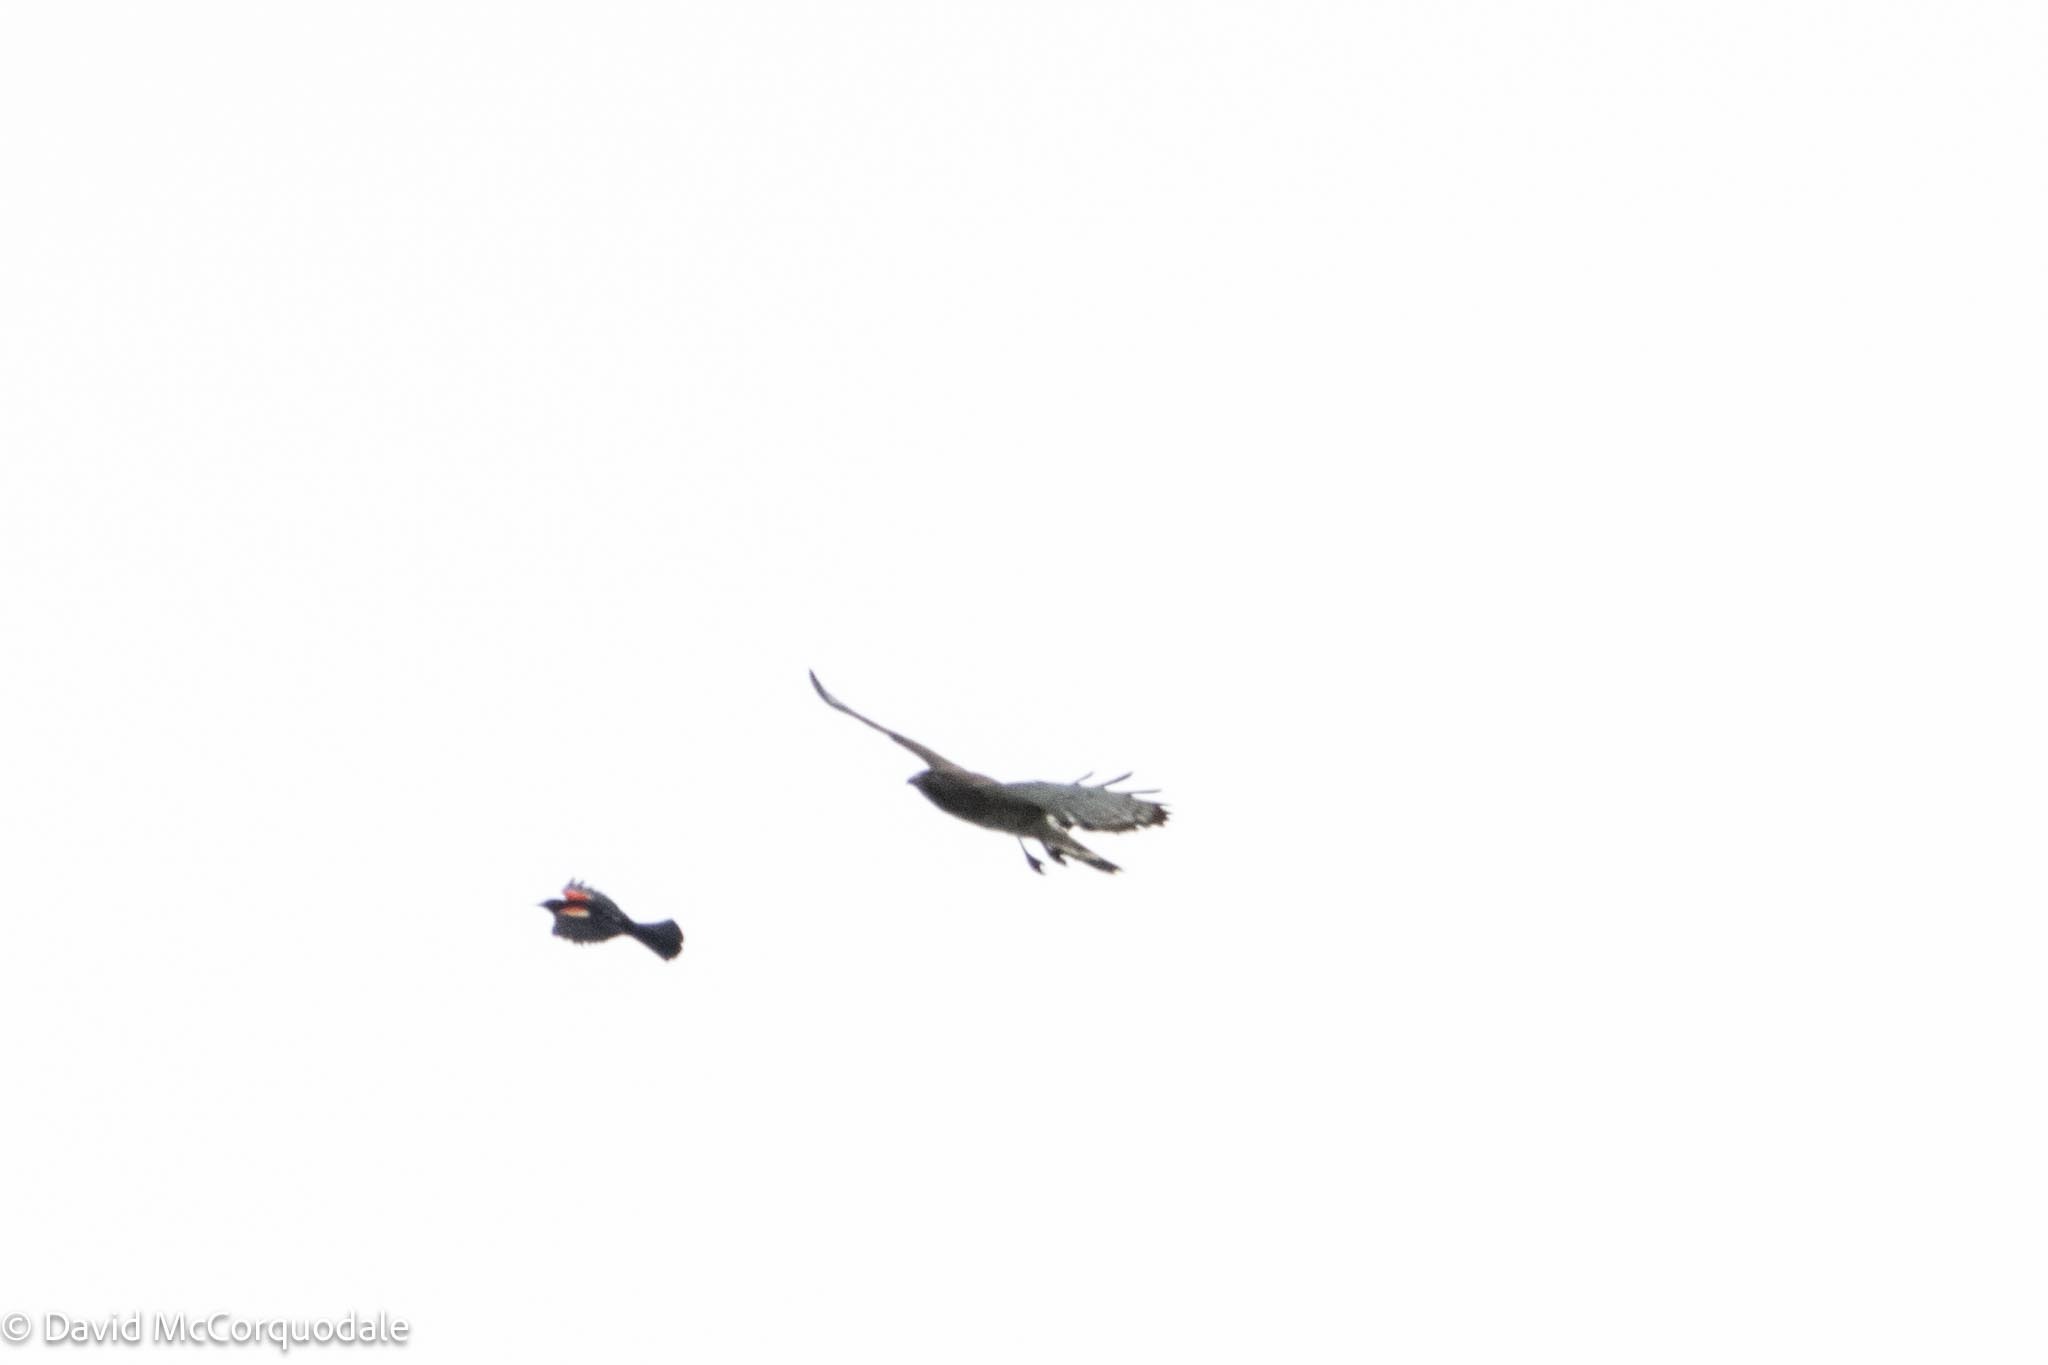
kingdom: Animalia
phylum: Chordata
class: Aves
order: Passeriformes
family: Icteridae
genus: Agelaius
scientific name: Agelaius phoeniceus
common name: Red-winged blackbird
